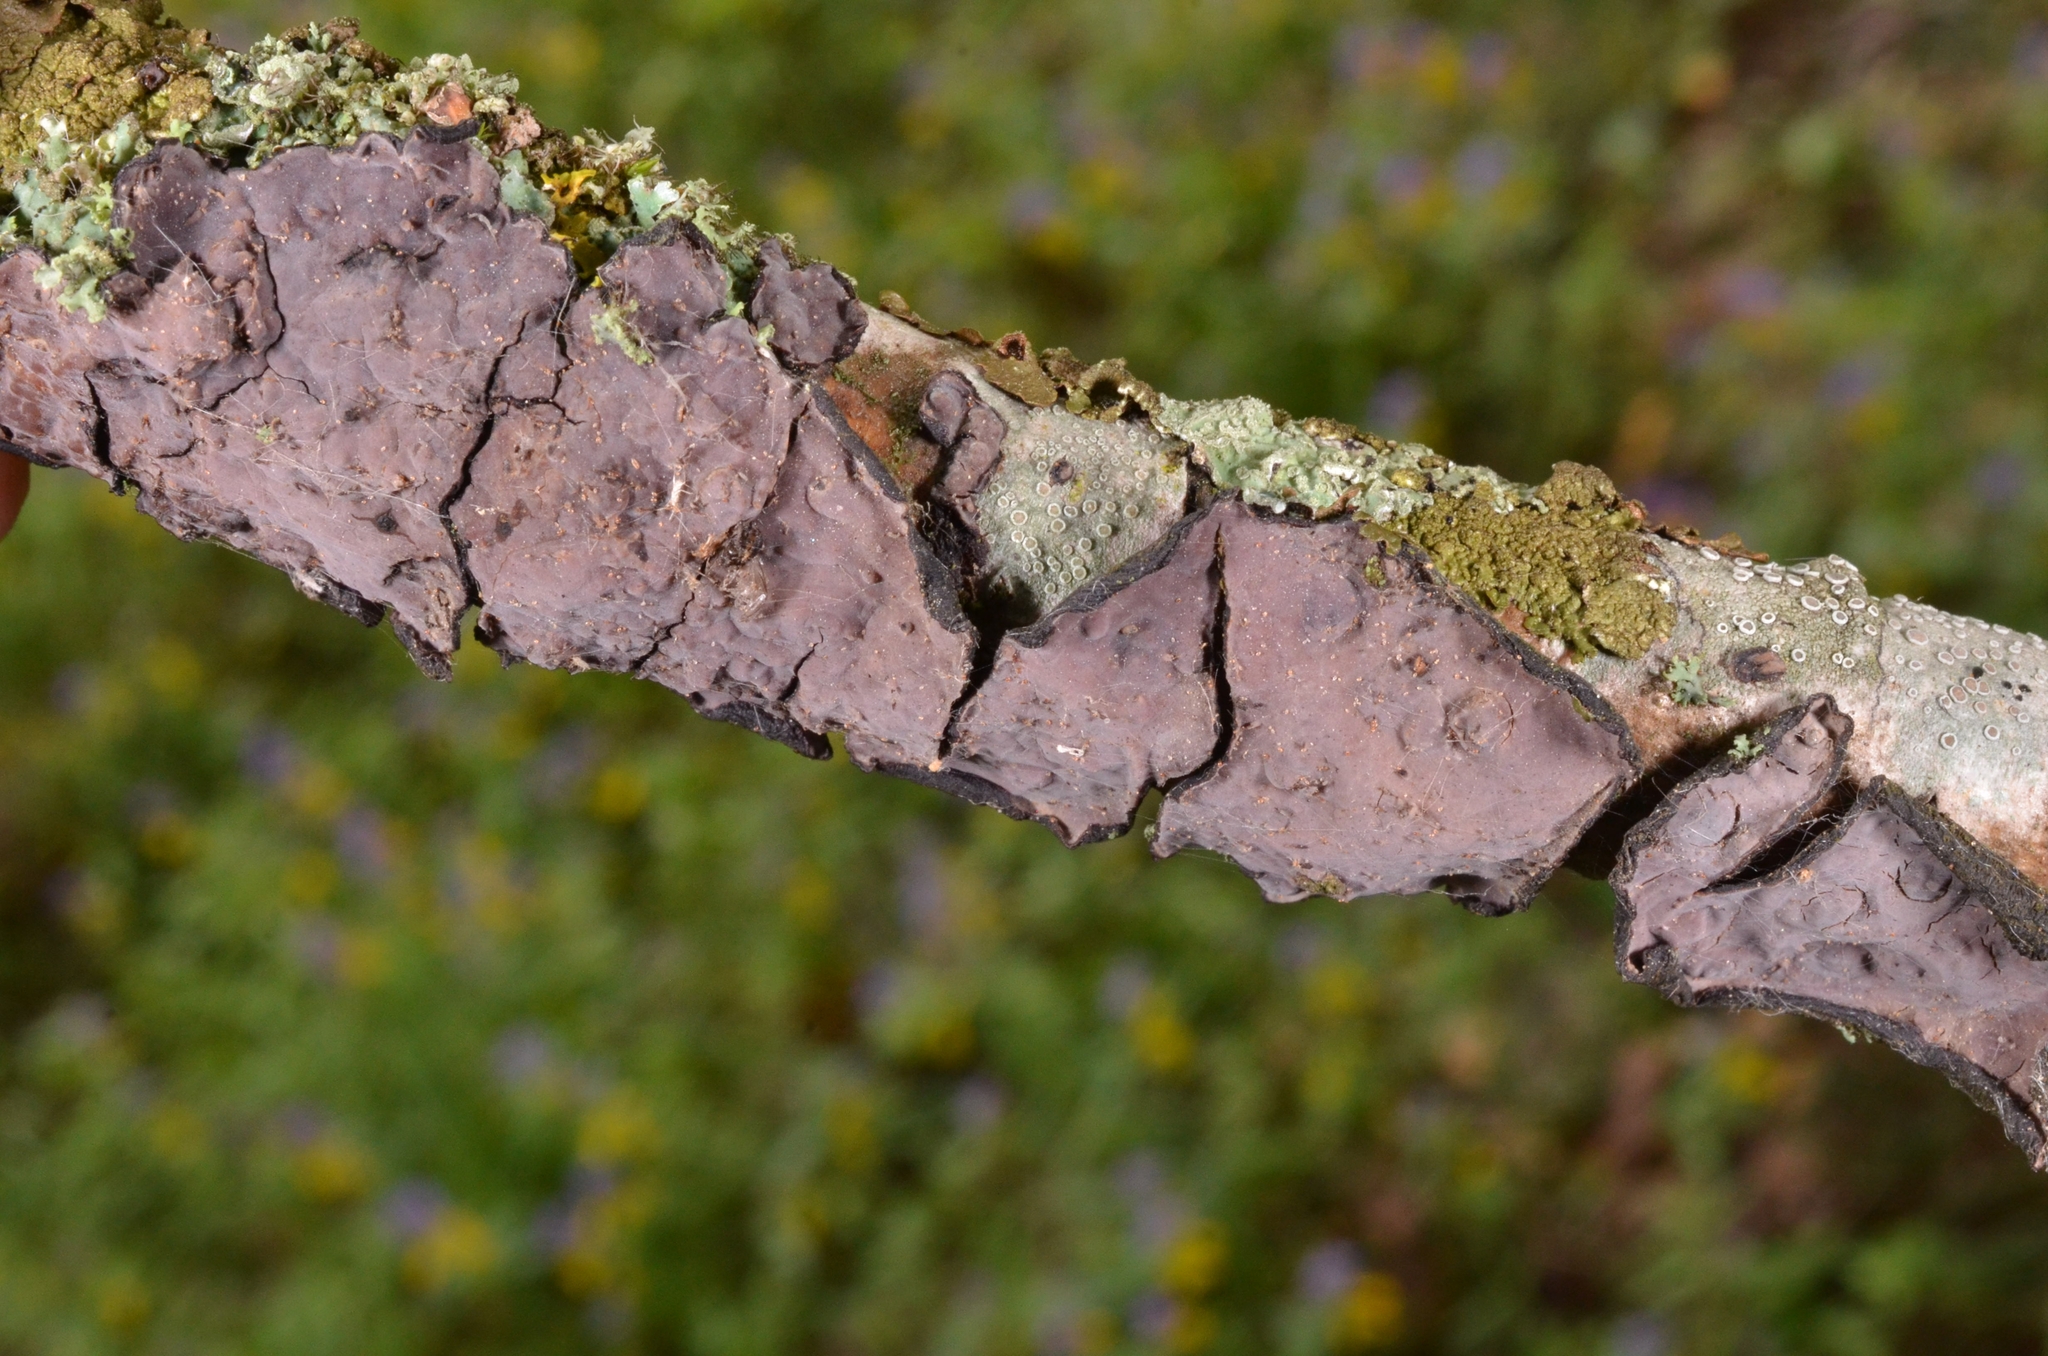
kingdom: Fungi
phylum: Basidiomycota
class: Agaricomycetes
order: Russulales
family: Peniophoraceae
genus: Peniophora
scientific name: Peniophora quercina
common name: Oak crust
